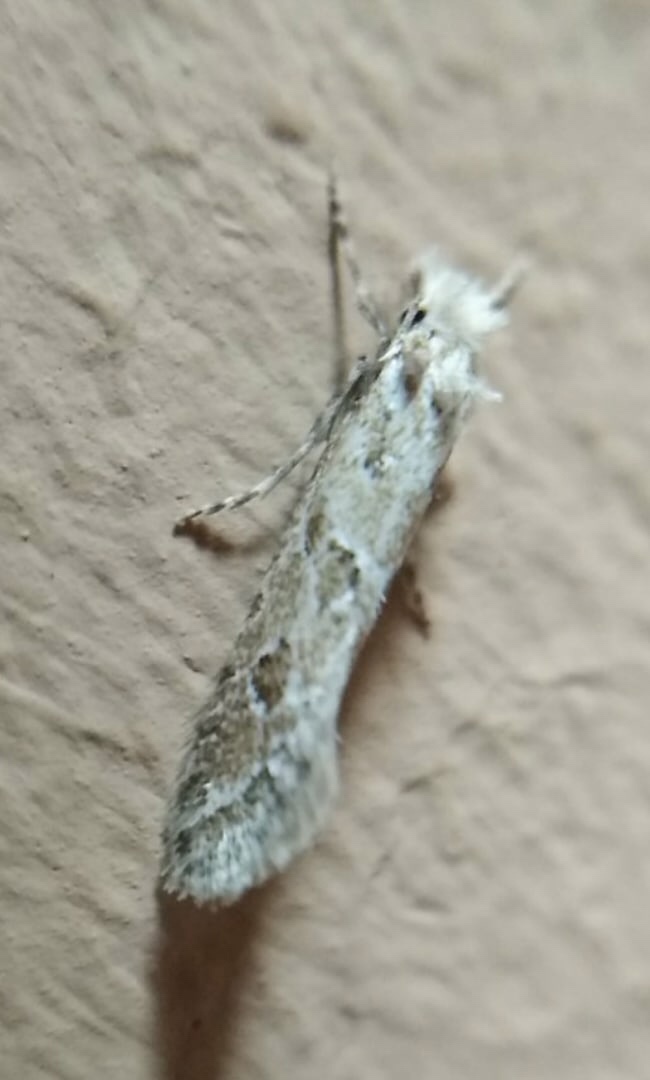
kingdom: Animalia
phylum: Arthropoda
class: Insecta
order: Lepidoptera
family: Tineidae
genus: Ateliotum
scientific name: Ateliotum hungaricellum
